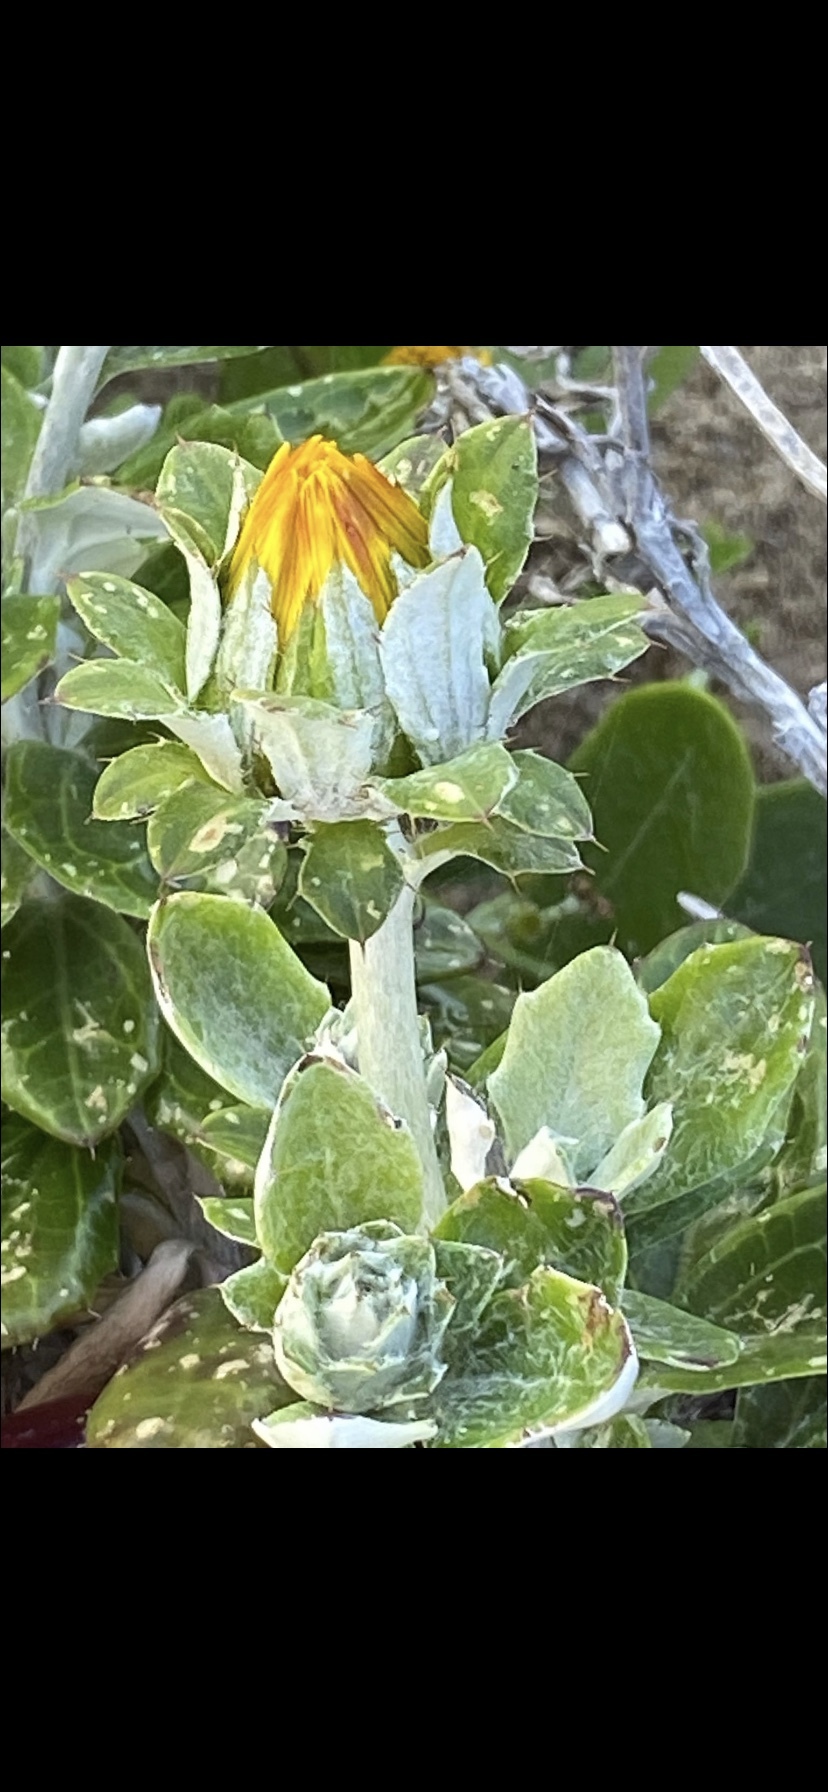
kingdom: Plantae
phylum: Tracheophyta
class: Magnoliopsida
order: Asterales
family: Asteraceae
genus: Berkheya
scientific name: Berkheya coriacea
